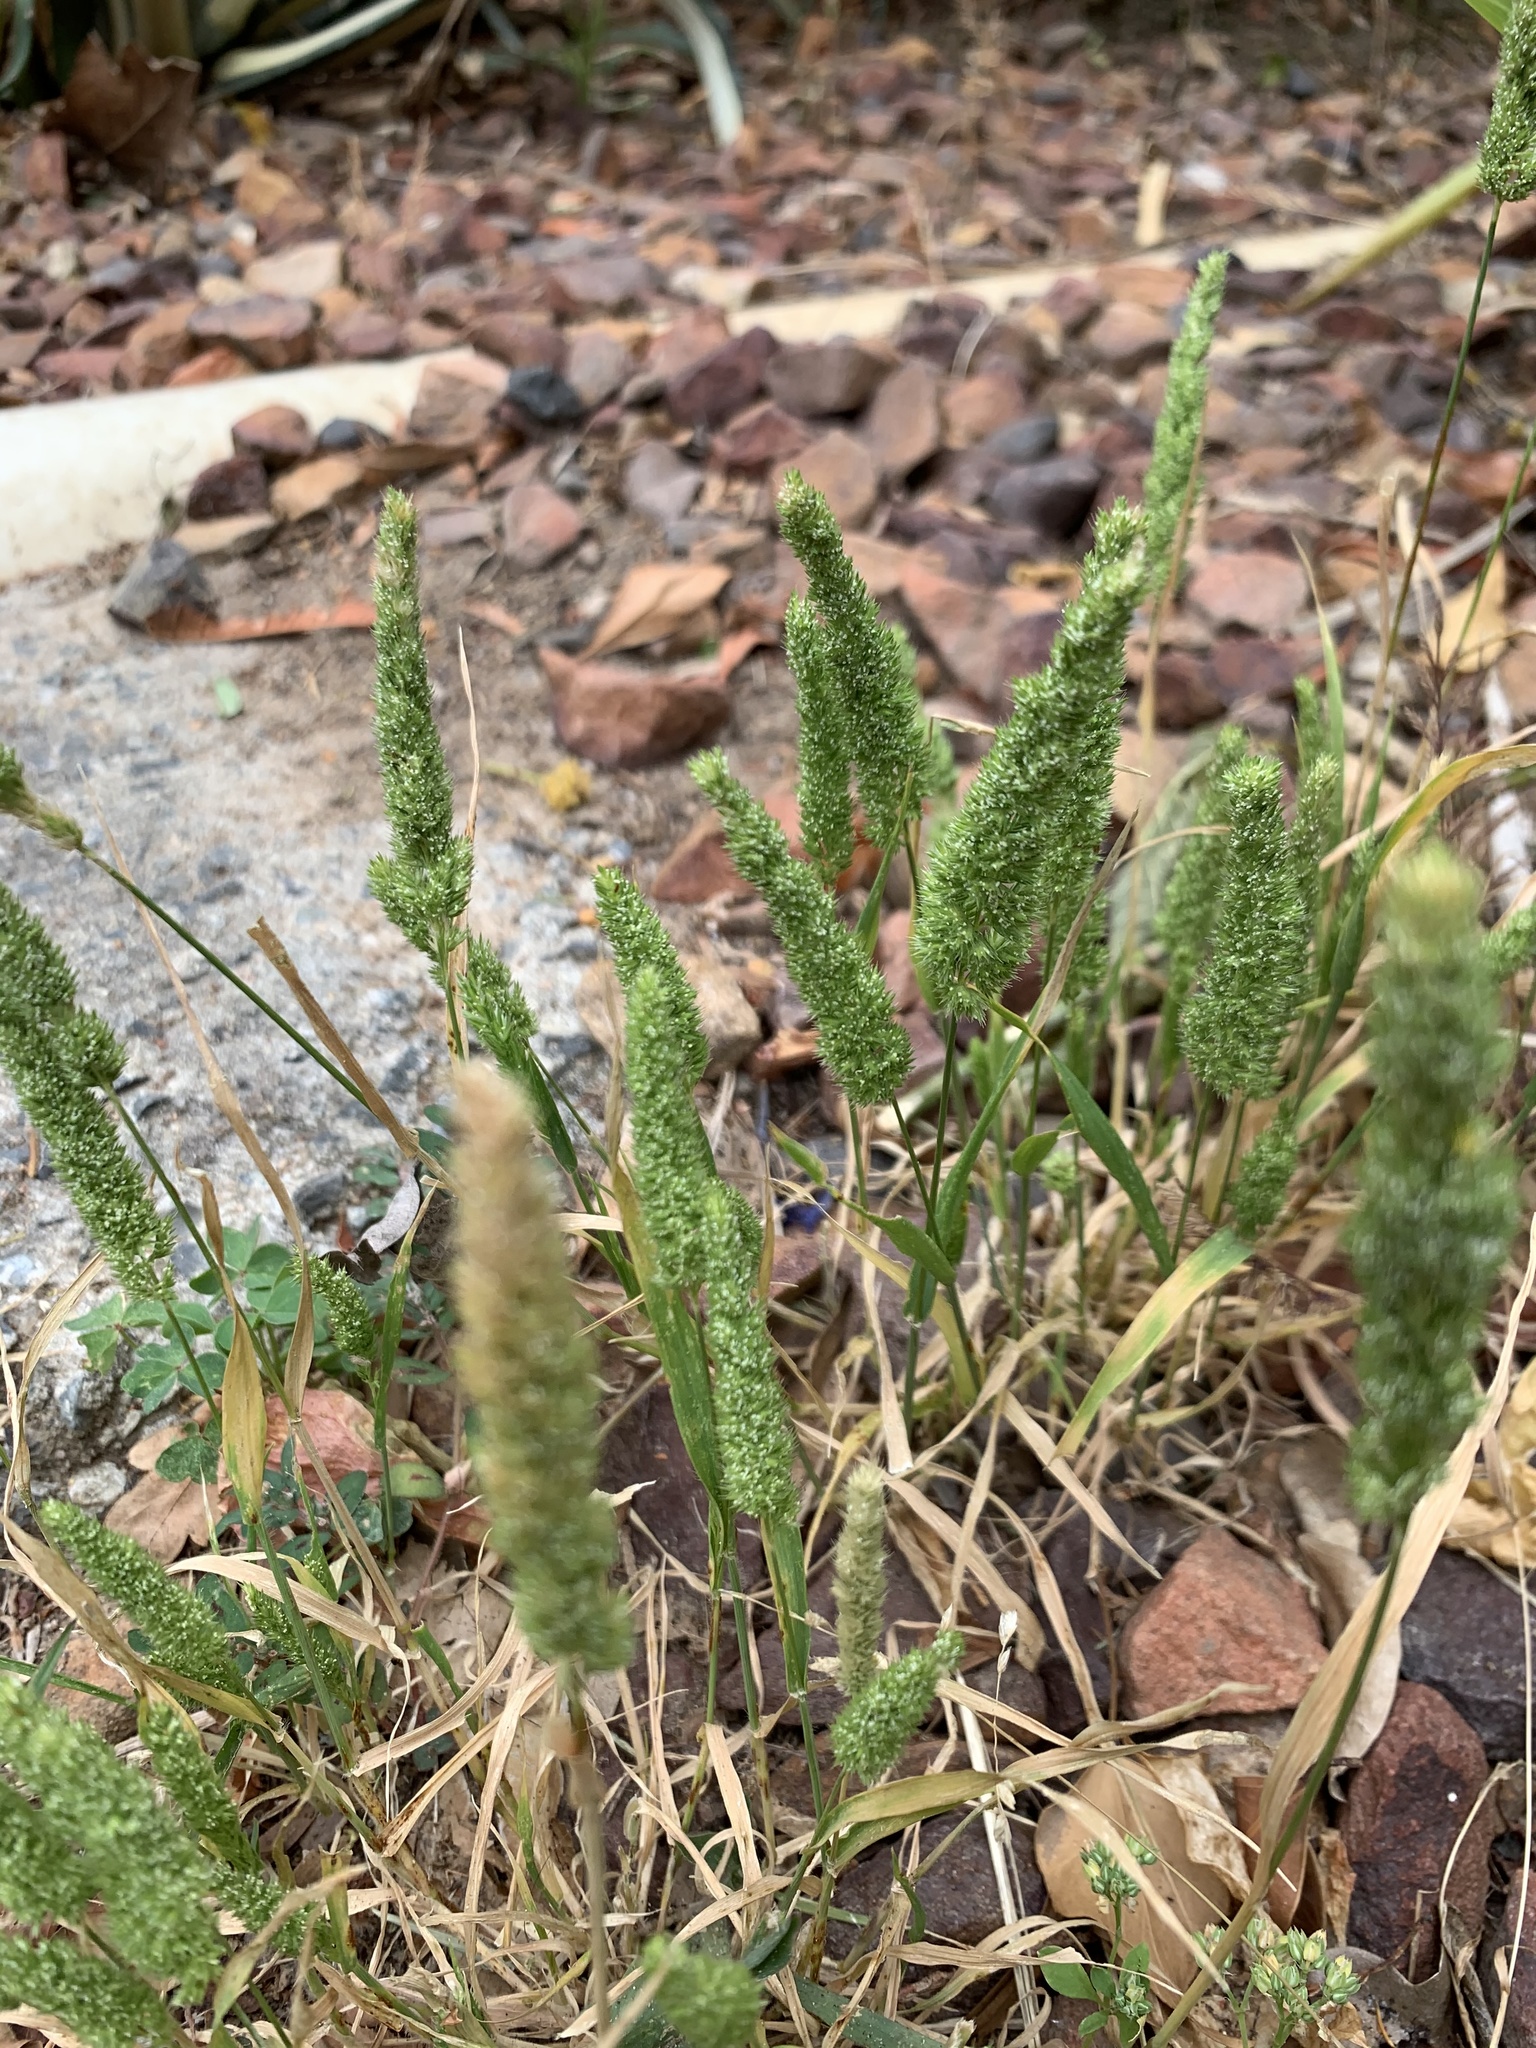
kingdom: Plantae
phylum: Tracheophyta
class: Liliopsida
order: Poales
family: Poaceae
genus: Rostraria
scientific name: Rostraria cristata
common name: Mediterranean hair-grass
